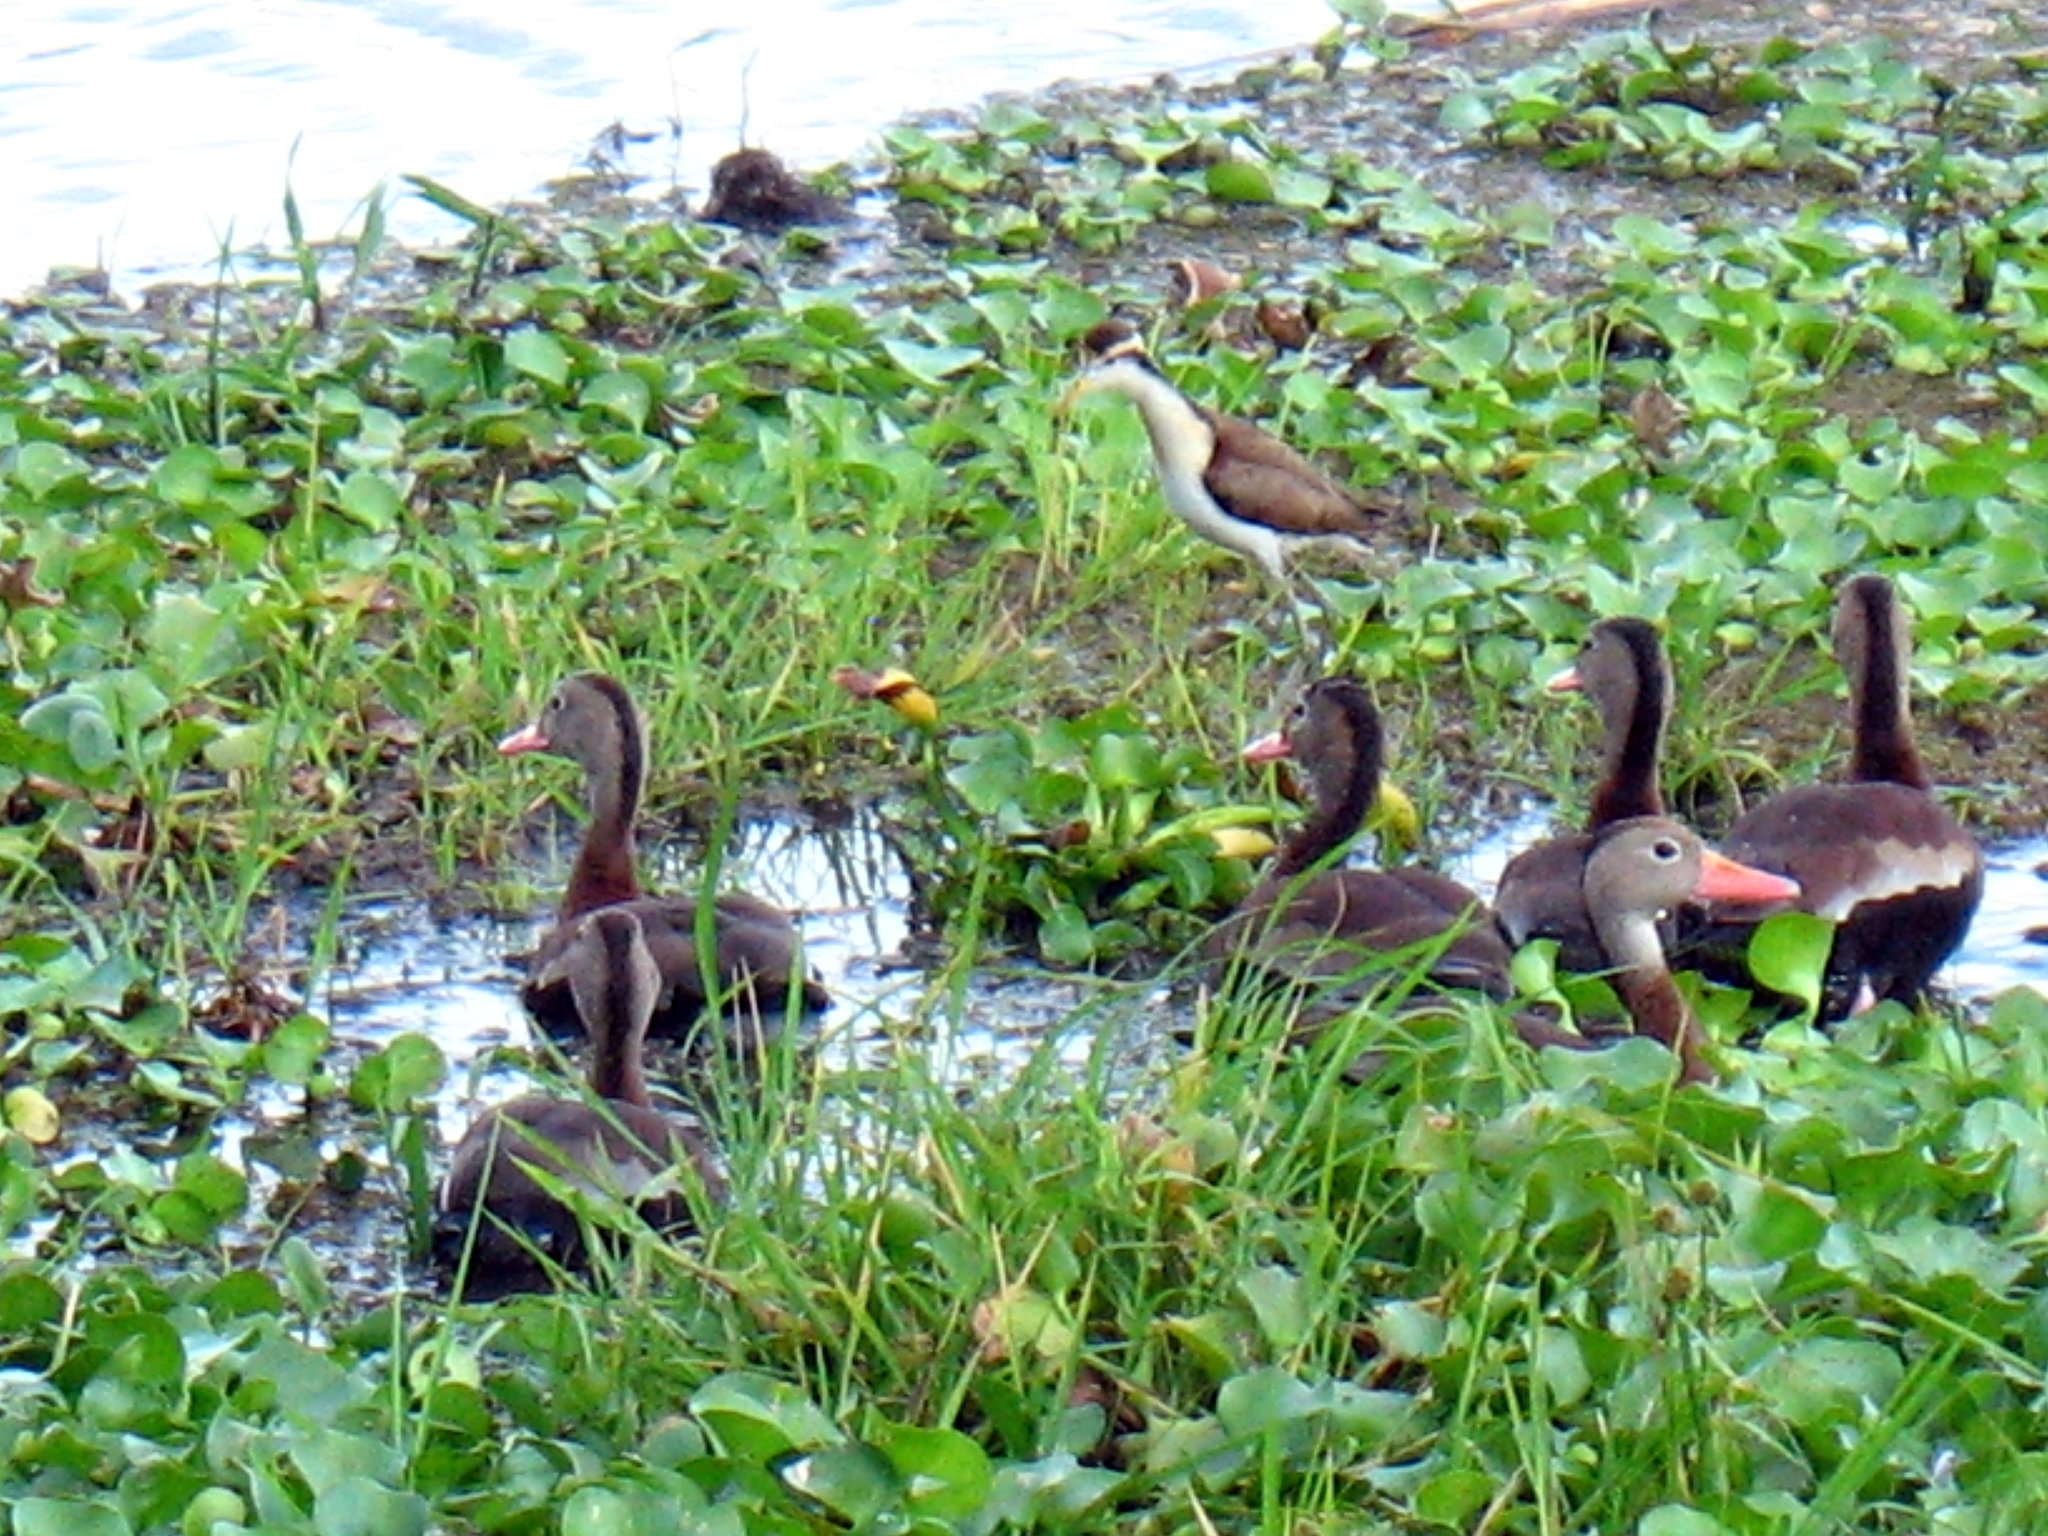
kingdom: Animalia
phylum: Chordata
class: Aves
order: Anseriformes
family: Anatidae
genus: Dendrocygna
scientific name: Dendrocygna autumnalis
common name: Black-bellied whistling duck
